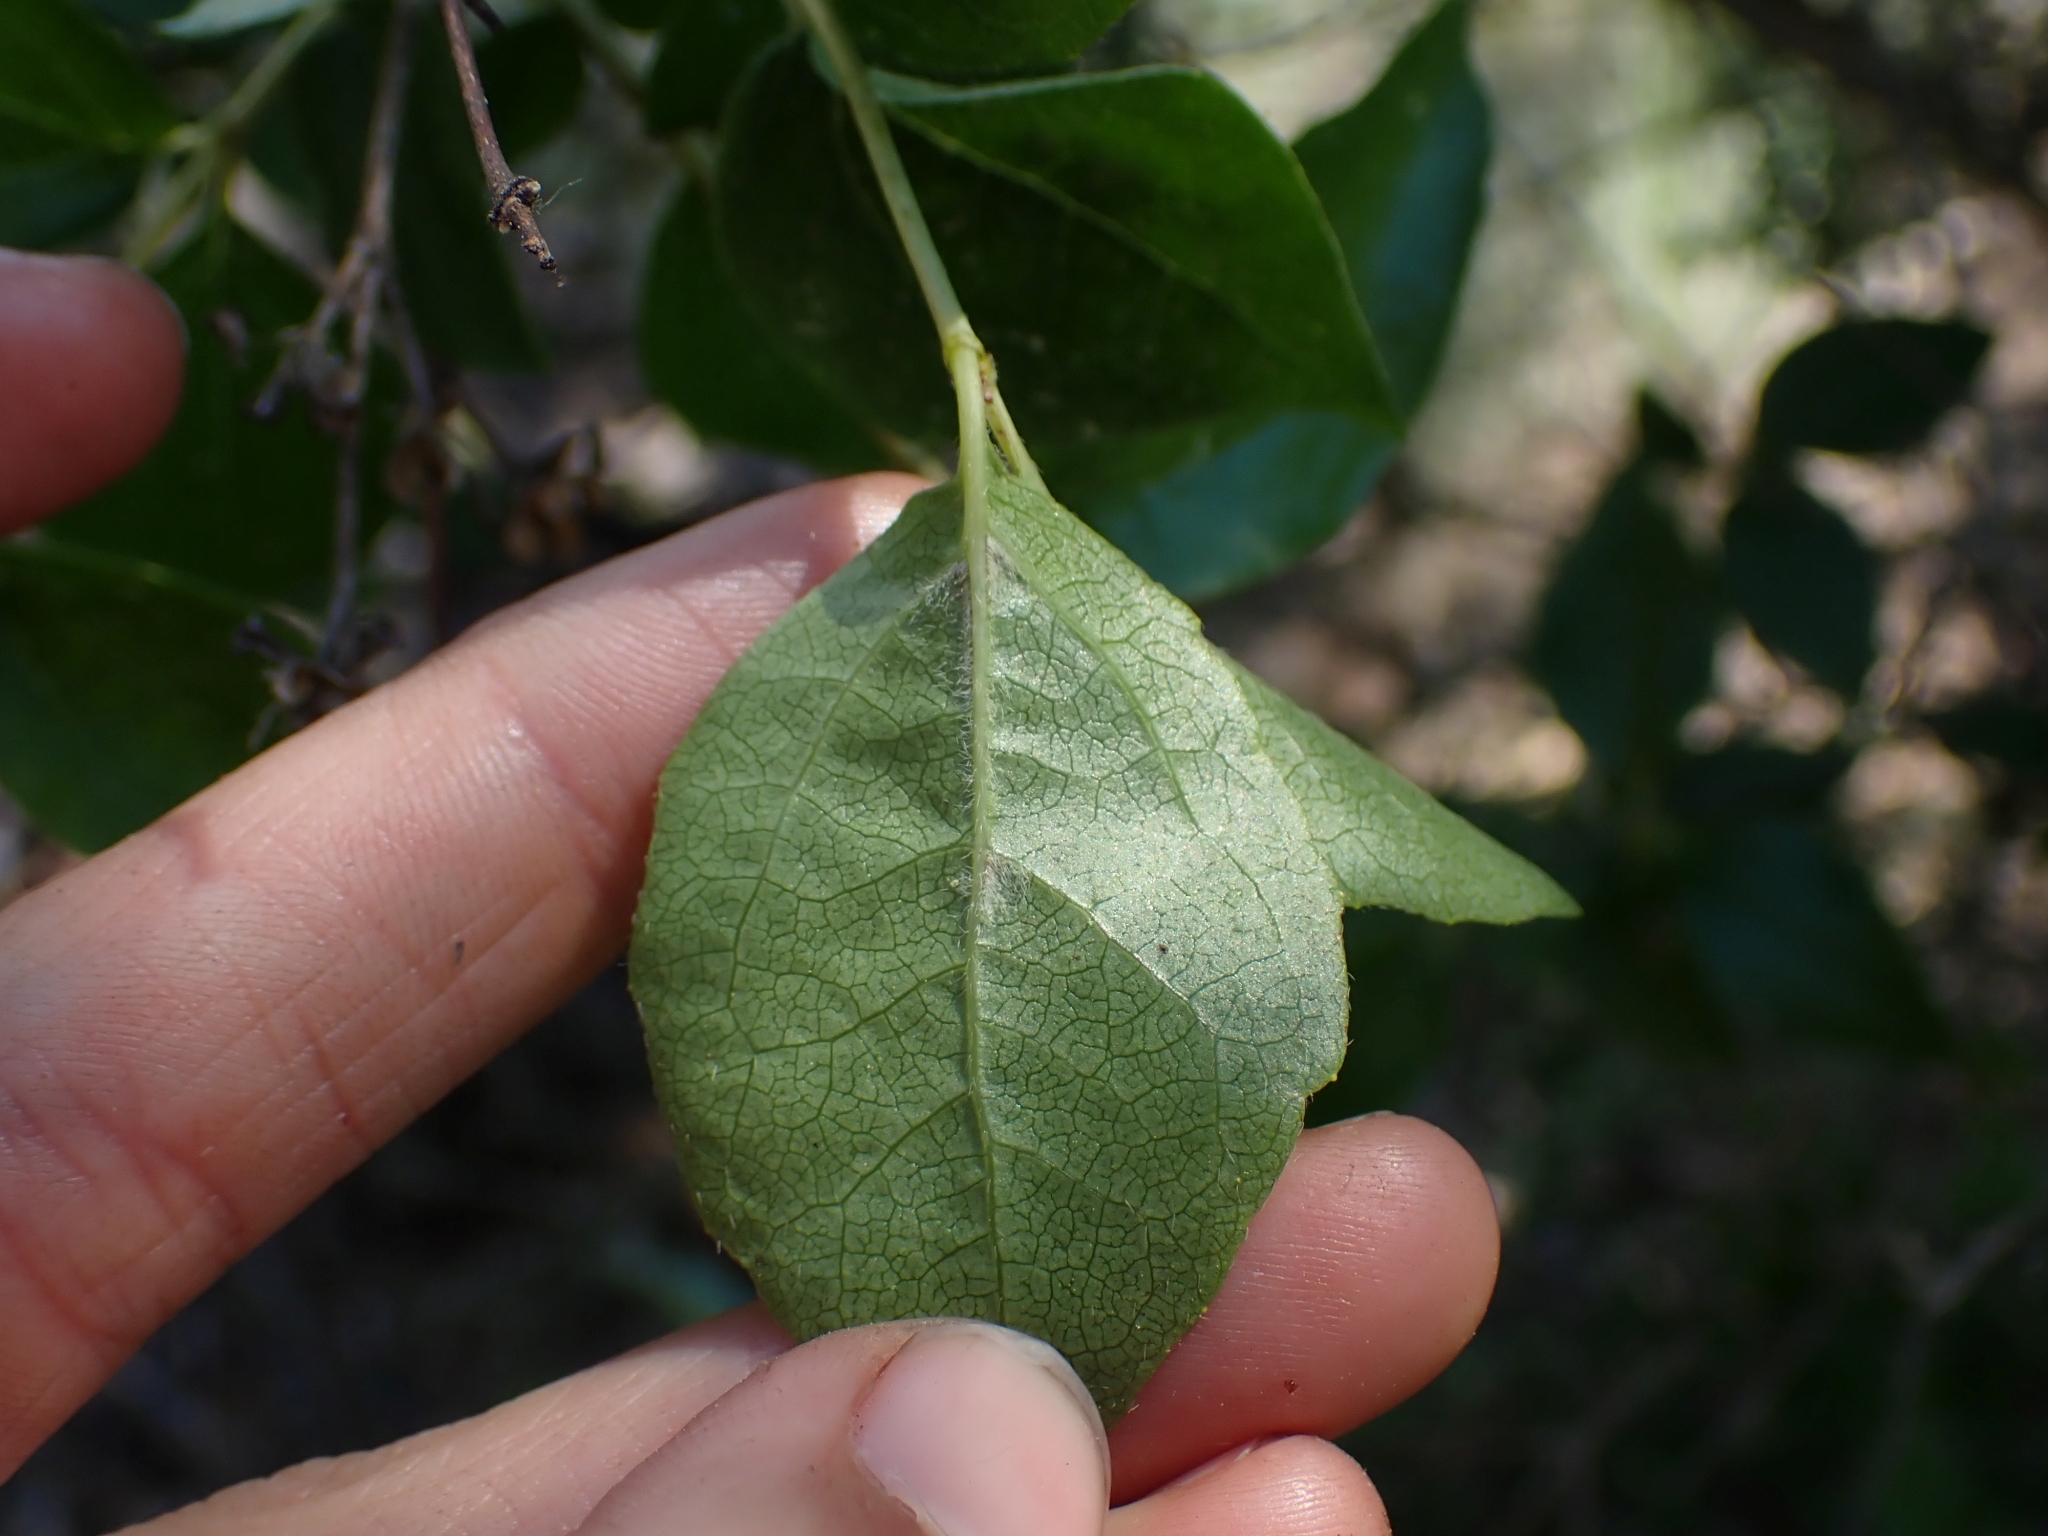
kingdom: Plantae
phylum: Tracheophyta
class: Magnoliopsida
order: Cornales
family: Hydrangeaceae
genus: Philadelphus
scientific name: Philadelphus lewisii
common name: Lewis's mock orange
